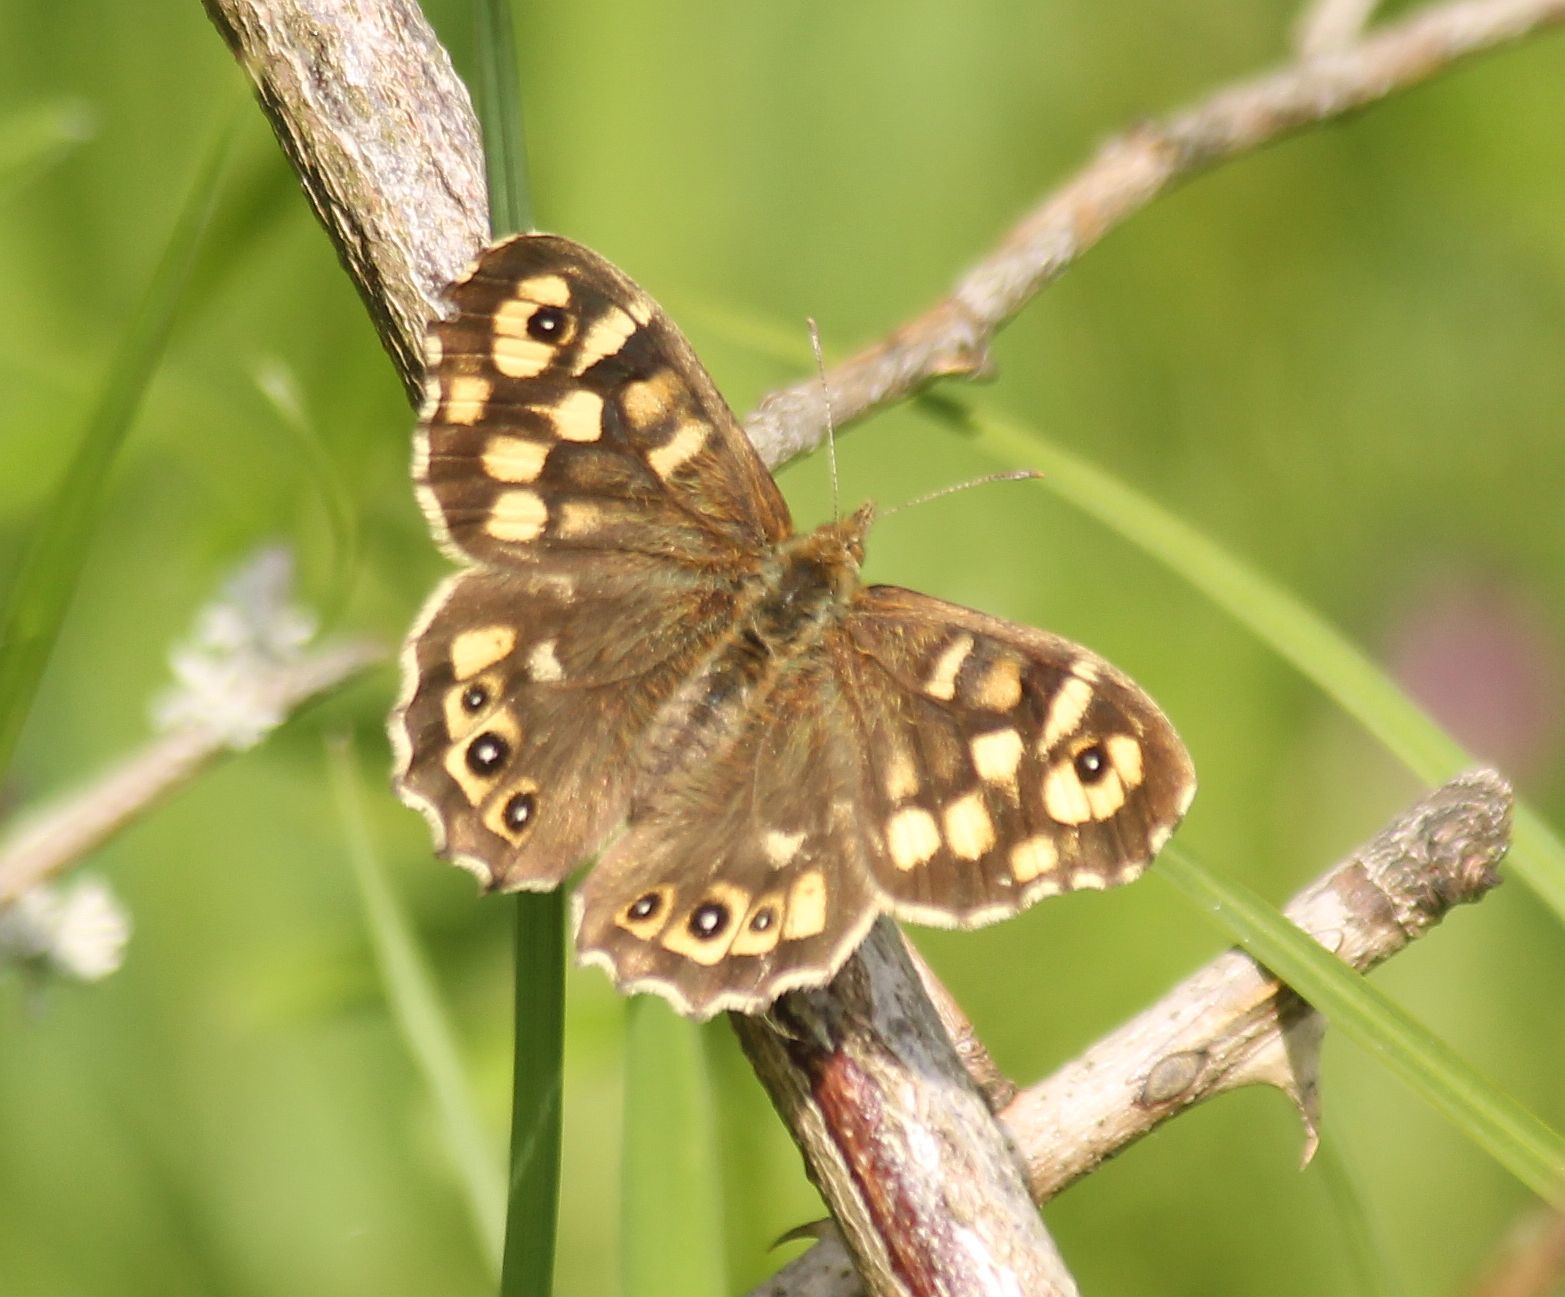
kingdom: Animalia
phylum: Arthropoda
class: Insecta
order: Lepidoptera
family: Nymphalidae
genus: Pararge
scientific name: Pararge aegeria
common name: Speckled wood
